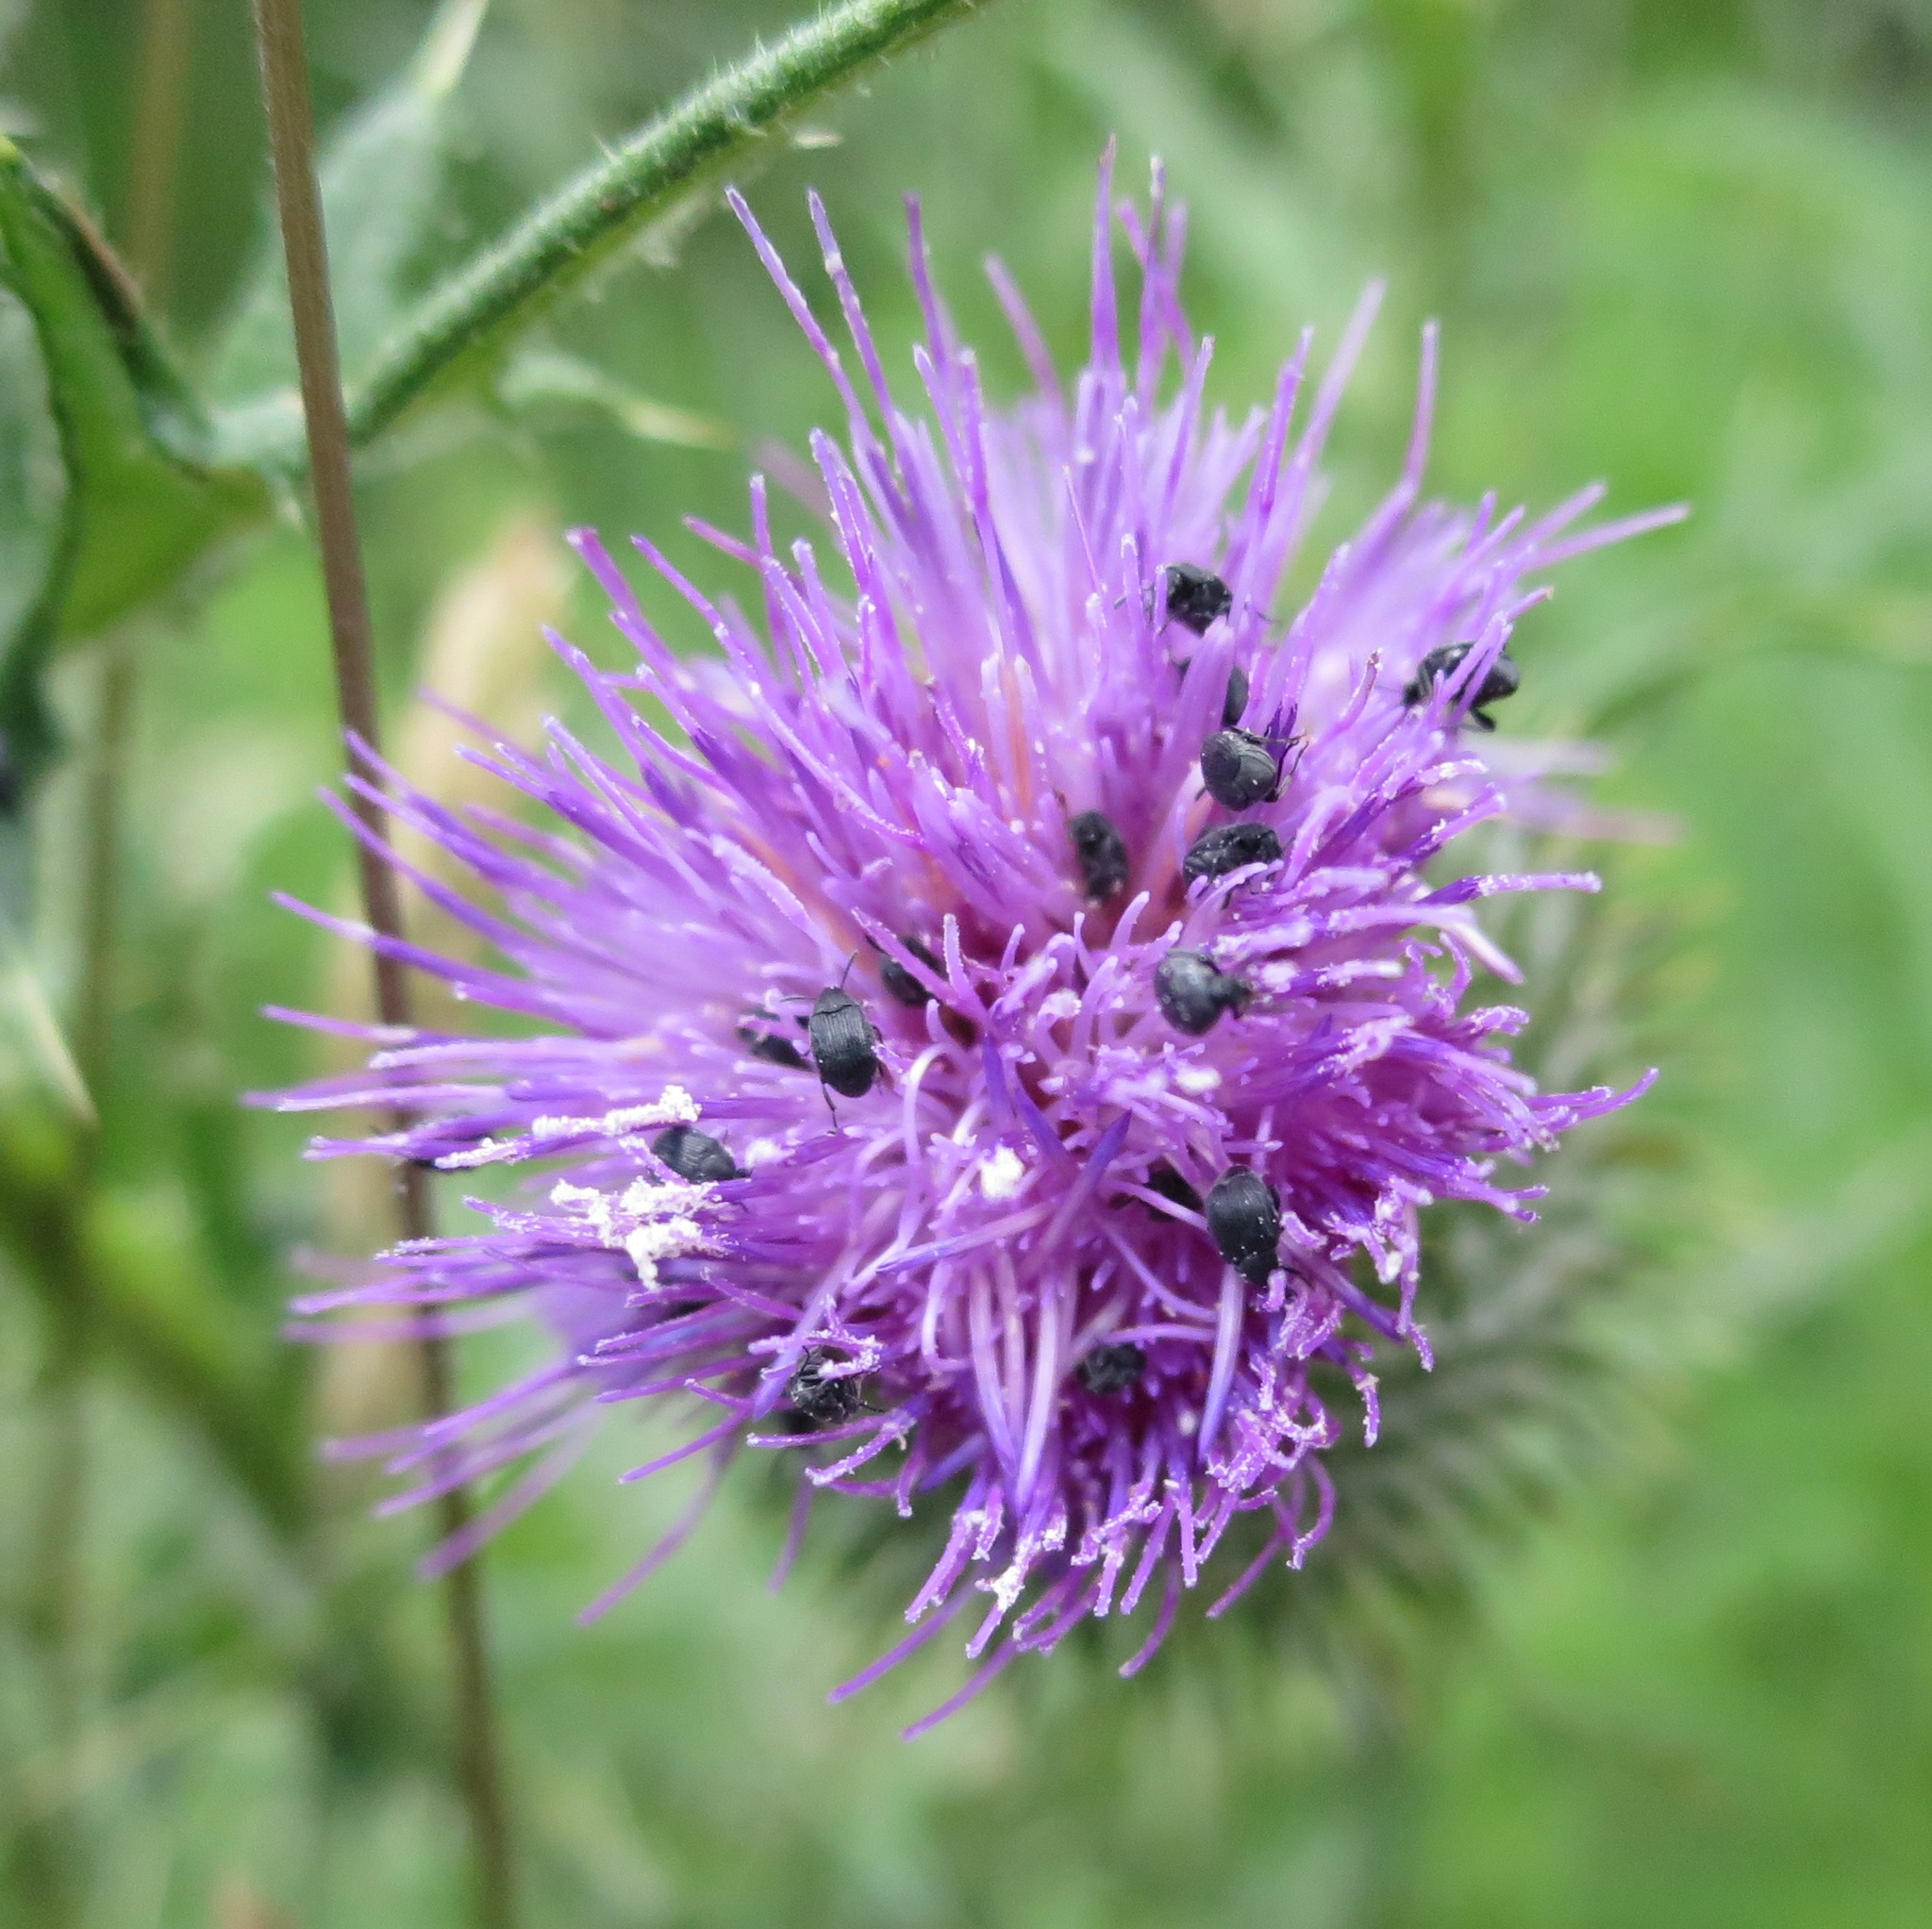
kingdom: Animalia
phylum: Arthropoda
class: Insecta
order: Coleoptera
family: Chrysomelidae
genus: Bruchidius
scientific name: Bruchidius villosus
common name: Scotch broom bruchid
